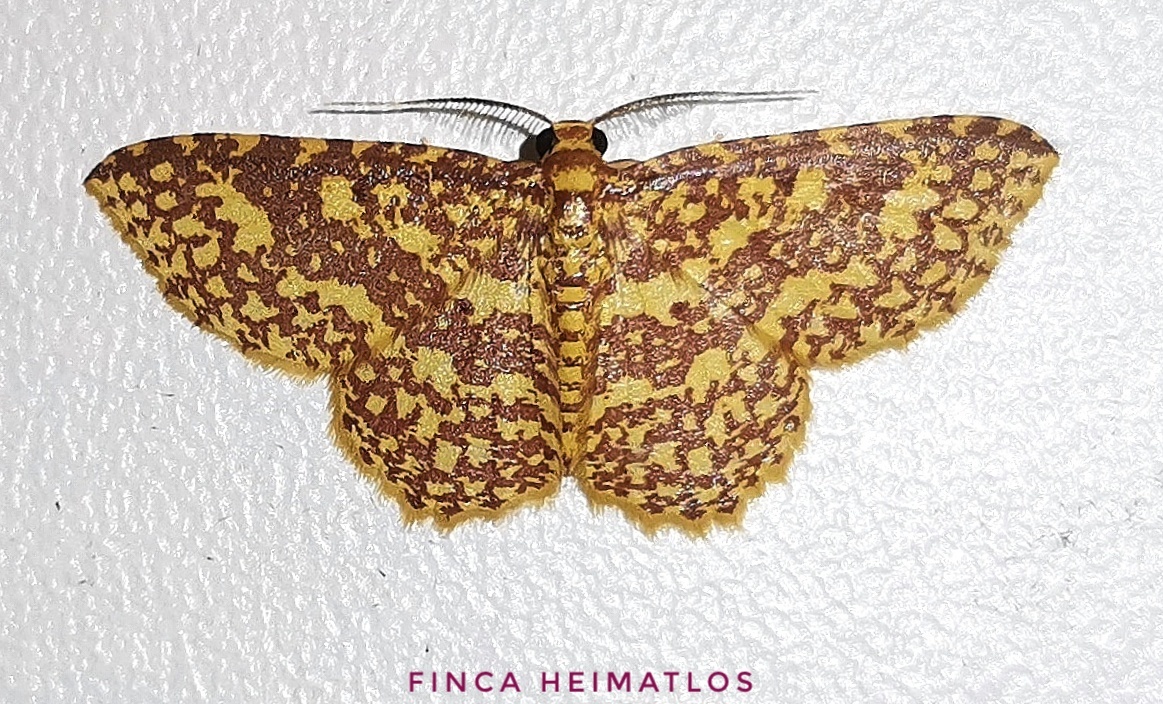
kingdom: Animalia
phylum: Arthropoda
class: Insecta
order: Lepidoptera
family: Geometridae
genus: Eois
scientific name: Eois cancellata
